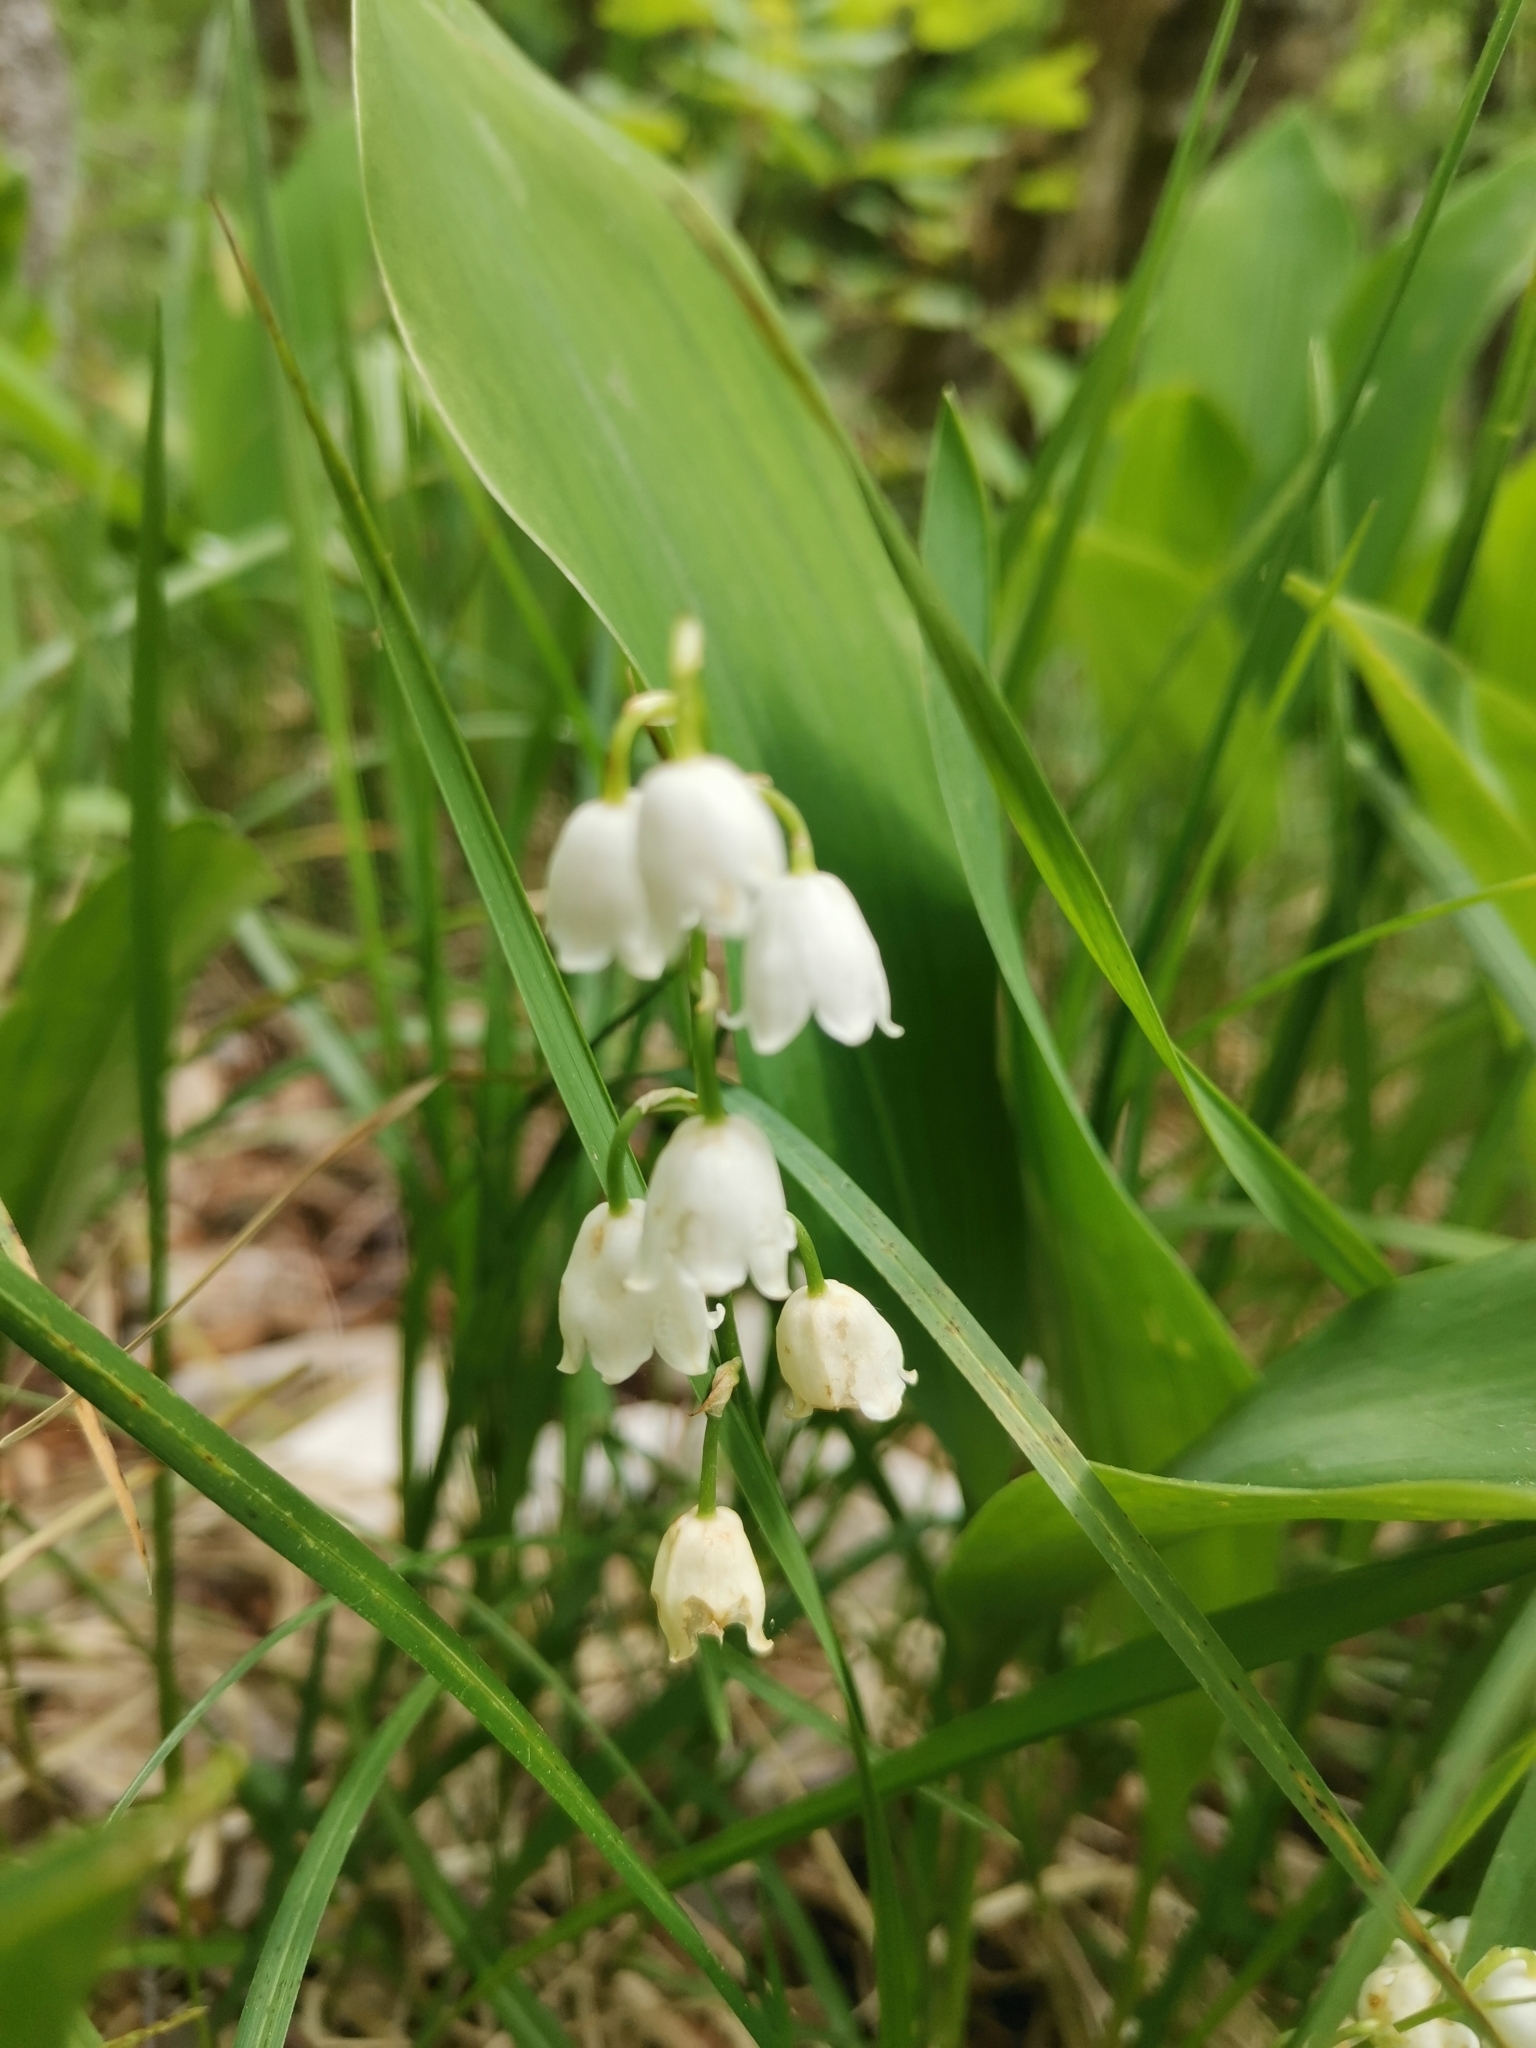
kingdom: Plantae
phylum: Tracheophyta
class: Liliopsida
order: Asparagales
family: Asparagaceae
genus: Convallaria
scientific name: Convallaria majalis
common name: Lily-of-the-valley
